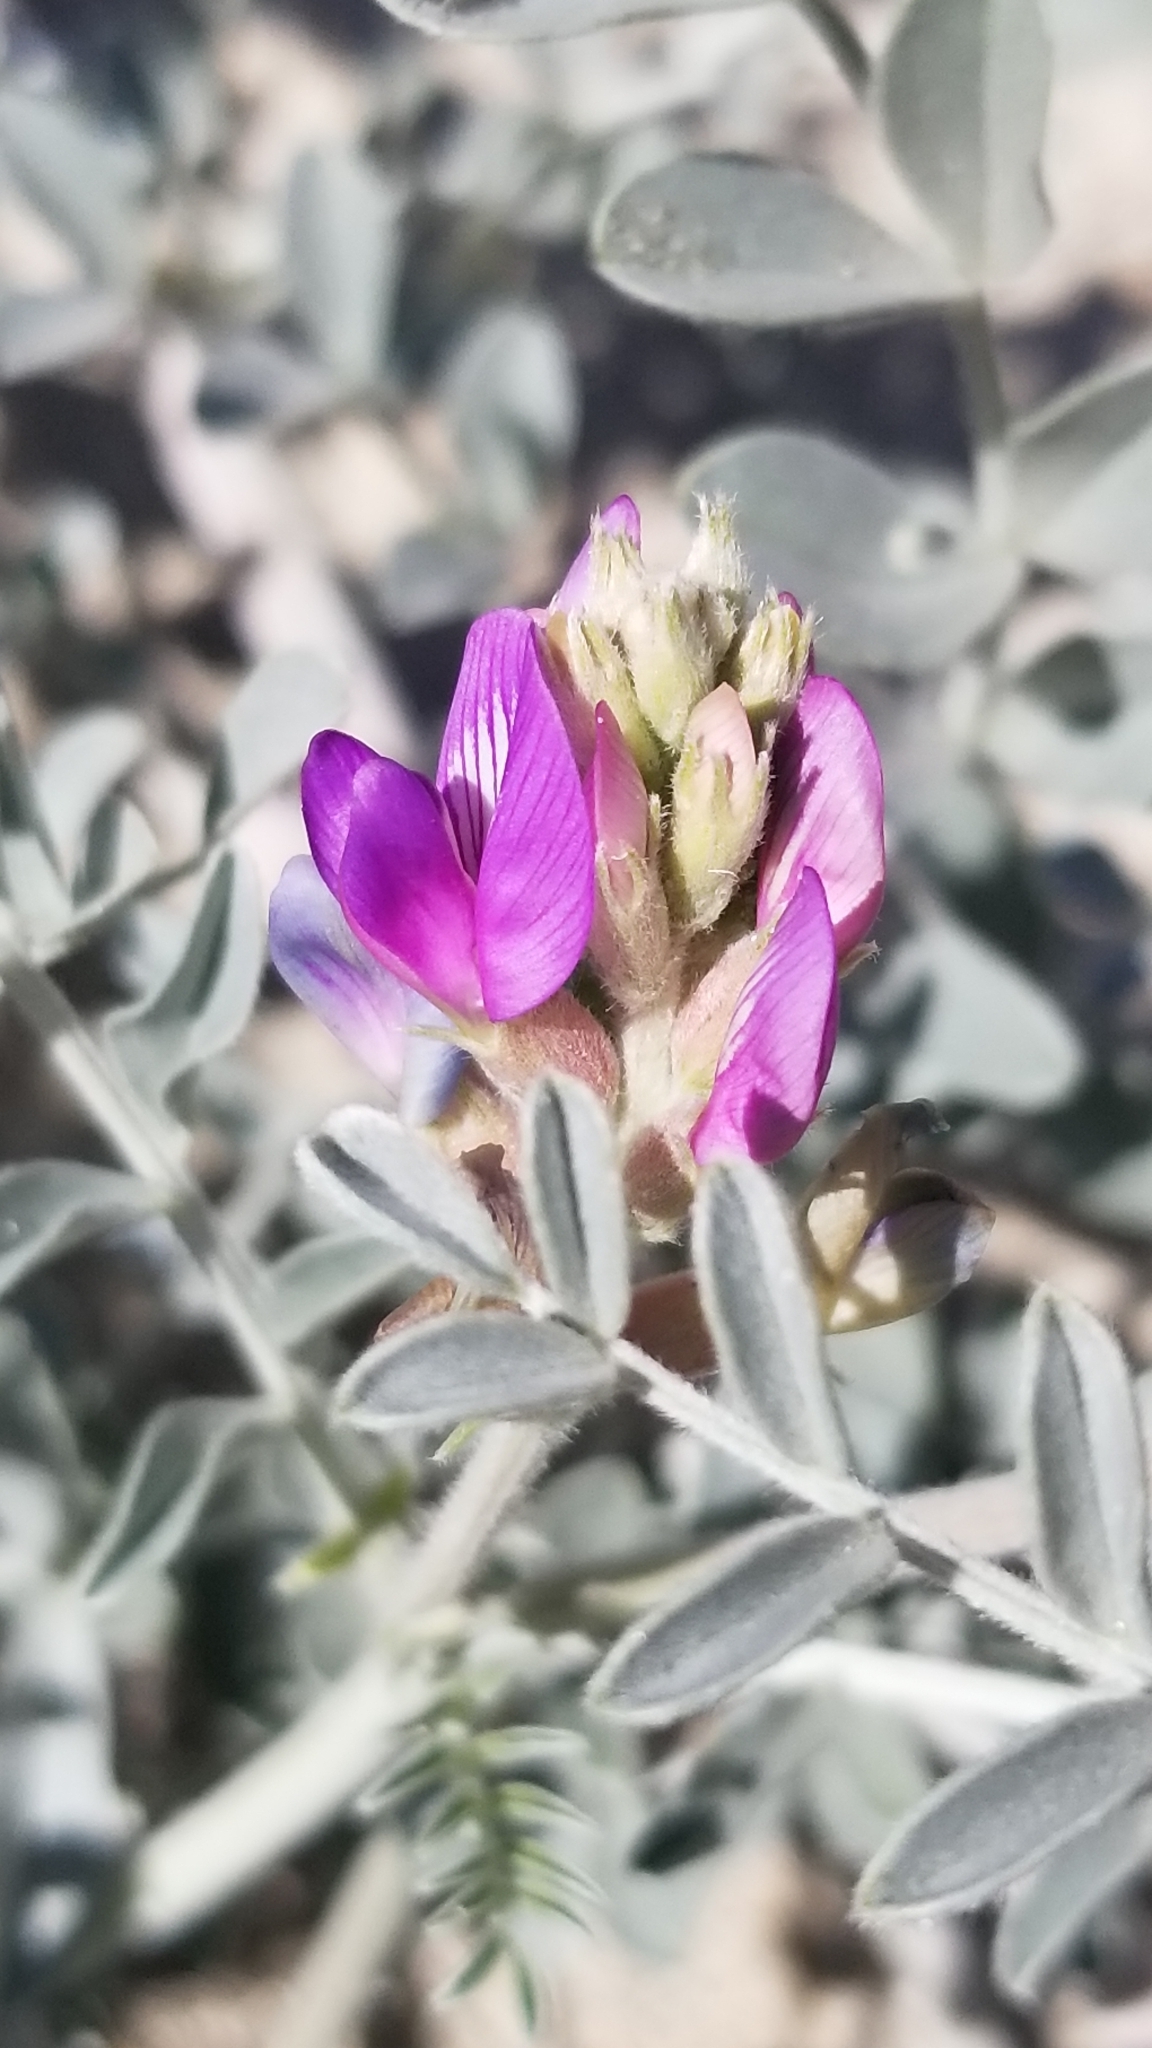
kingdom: Plantae
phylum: Tracheophyta
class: Magnoliopsida
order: Fabales
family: Fabaceae
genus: Astragalus
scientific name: Astragalus lentiginosus
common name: Freckled milkvetch
